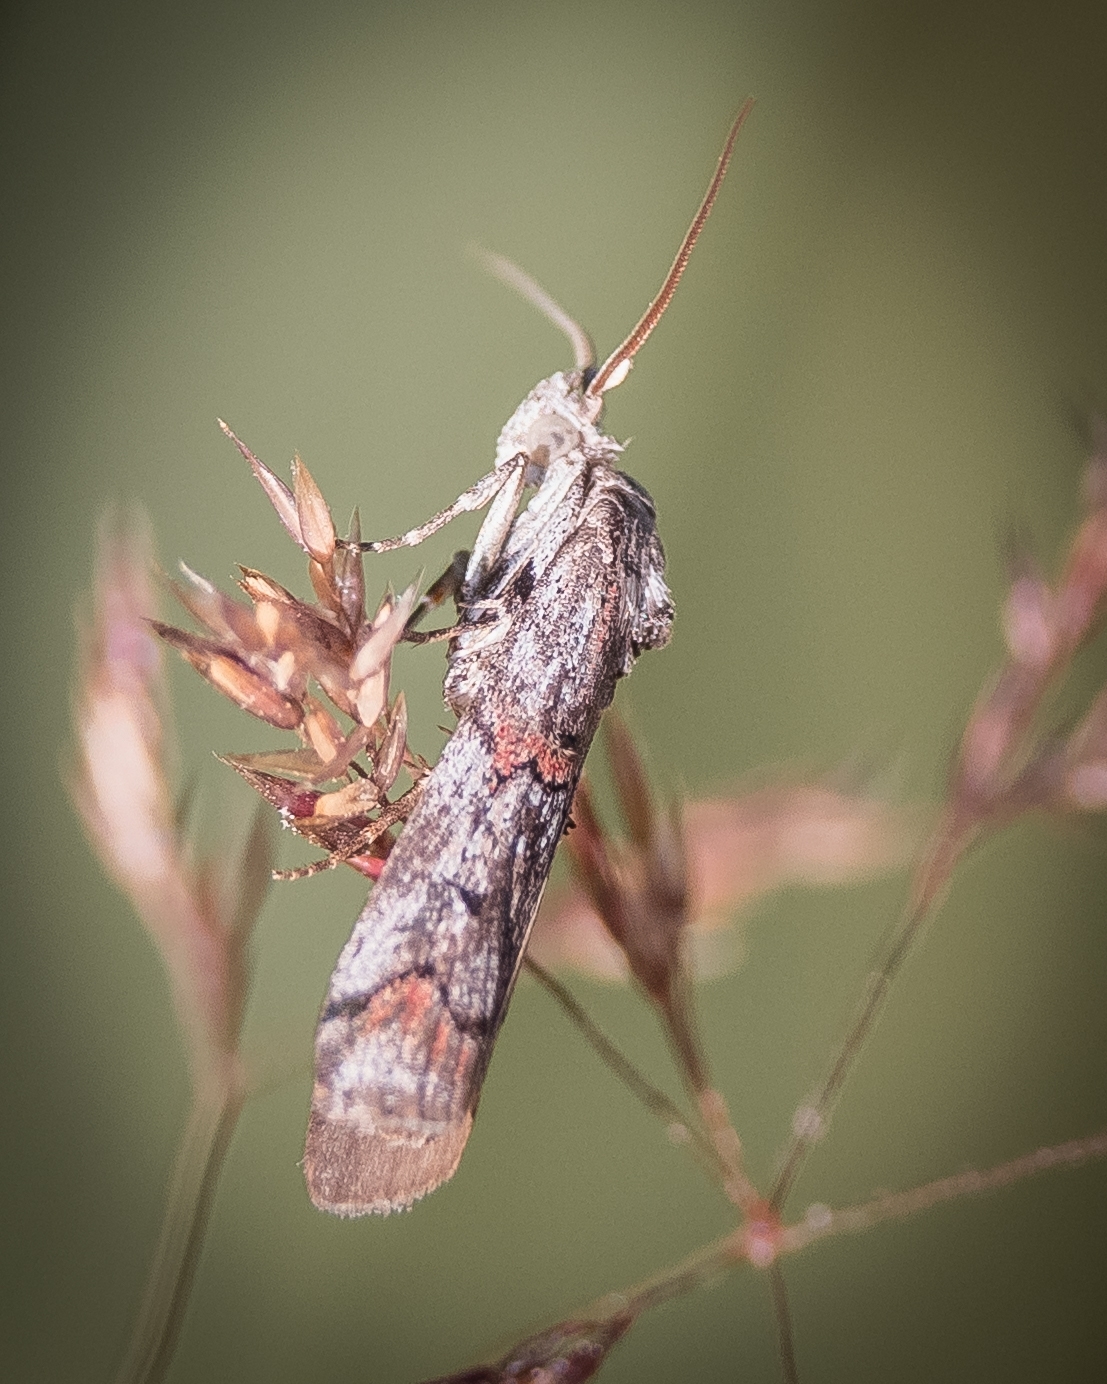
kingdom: Animalia
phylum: Arthropoda
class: Insecta
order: Lepidoptera
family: Pyralidae
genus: Pempelia
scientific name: Pempelia palumbella
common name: Heather knot-horn
